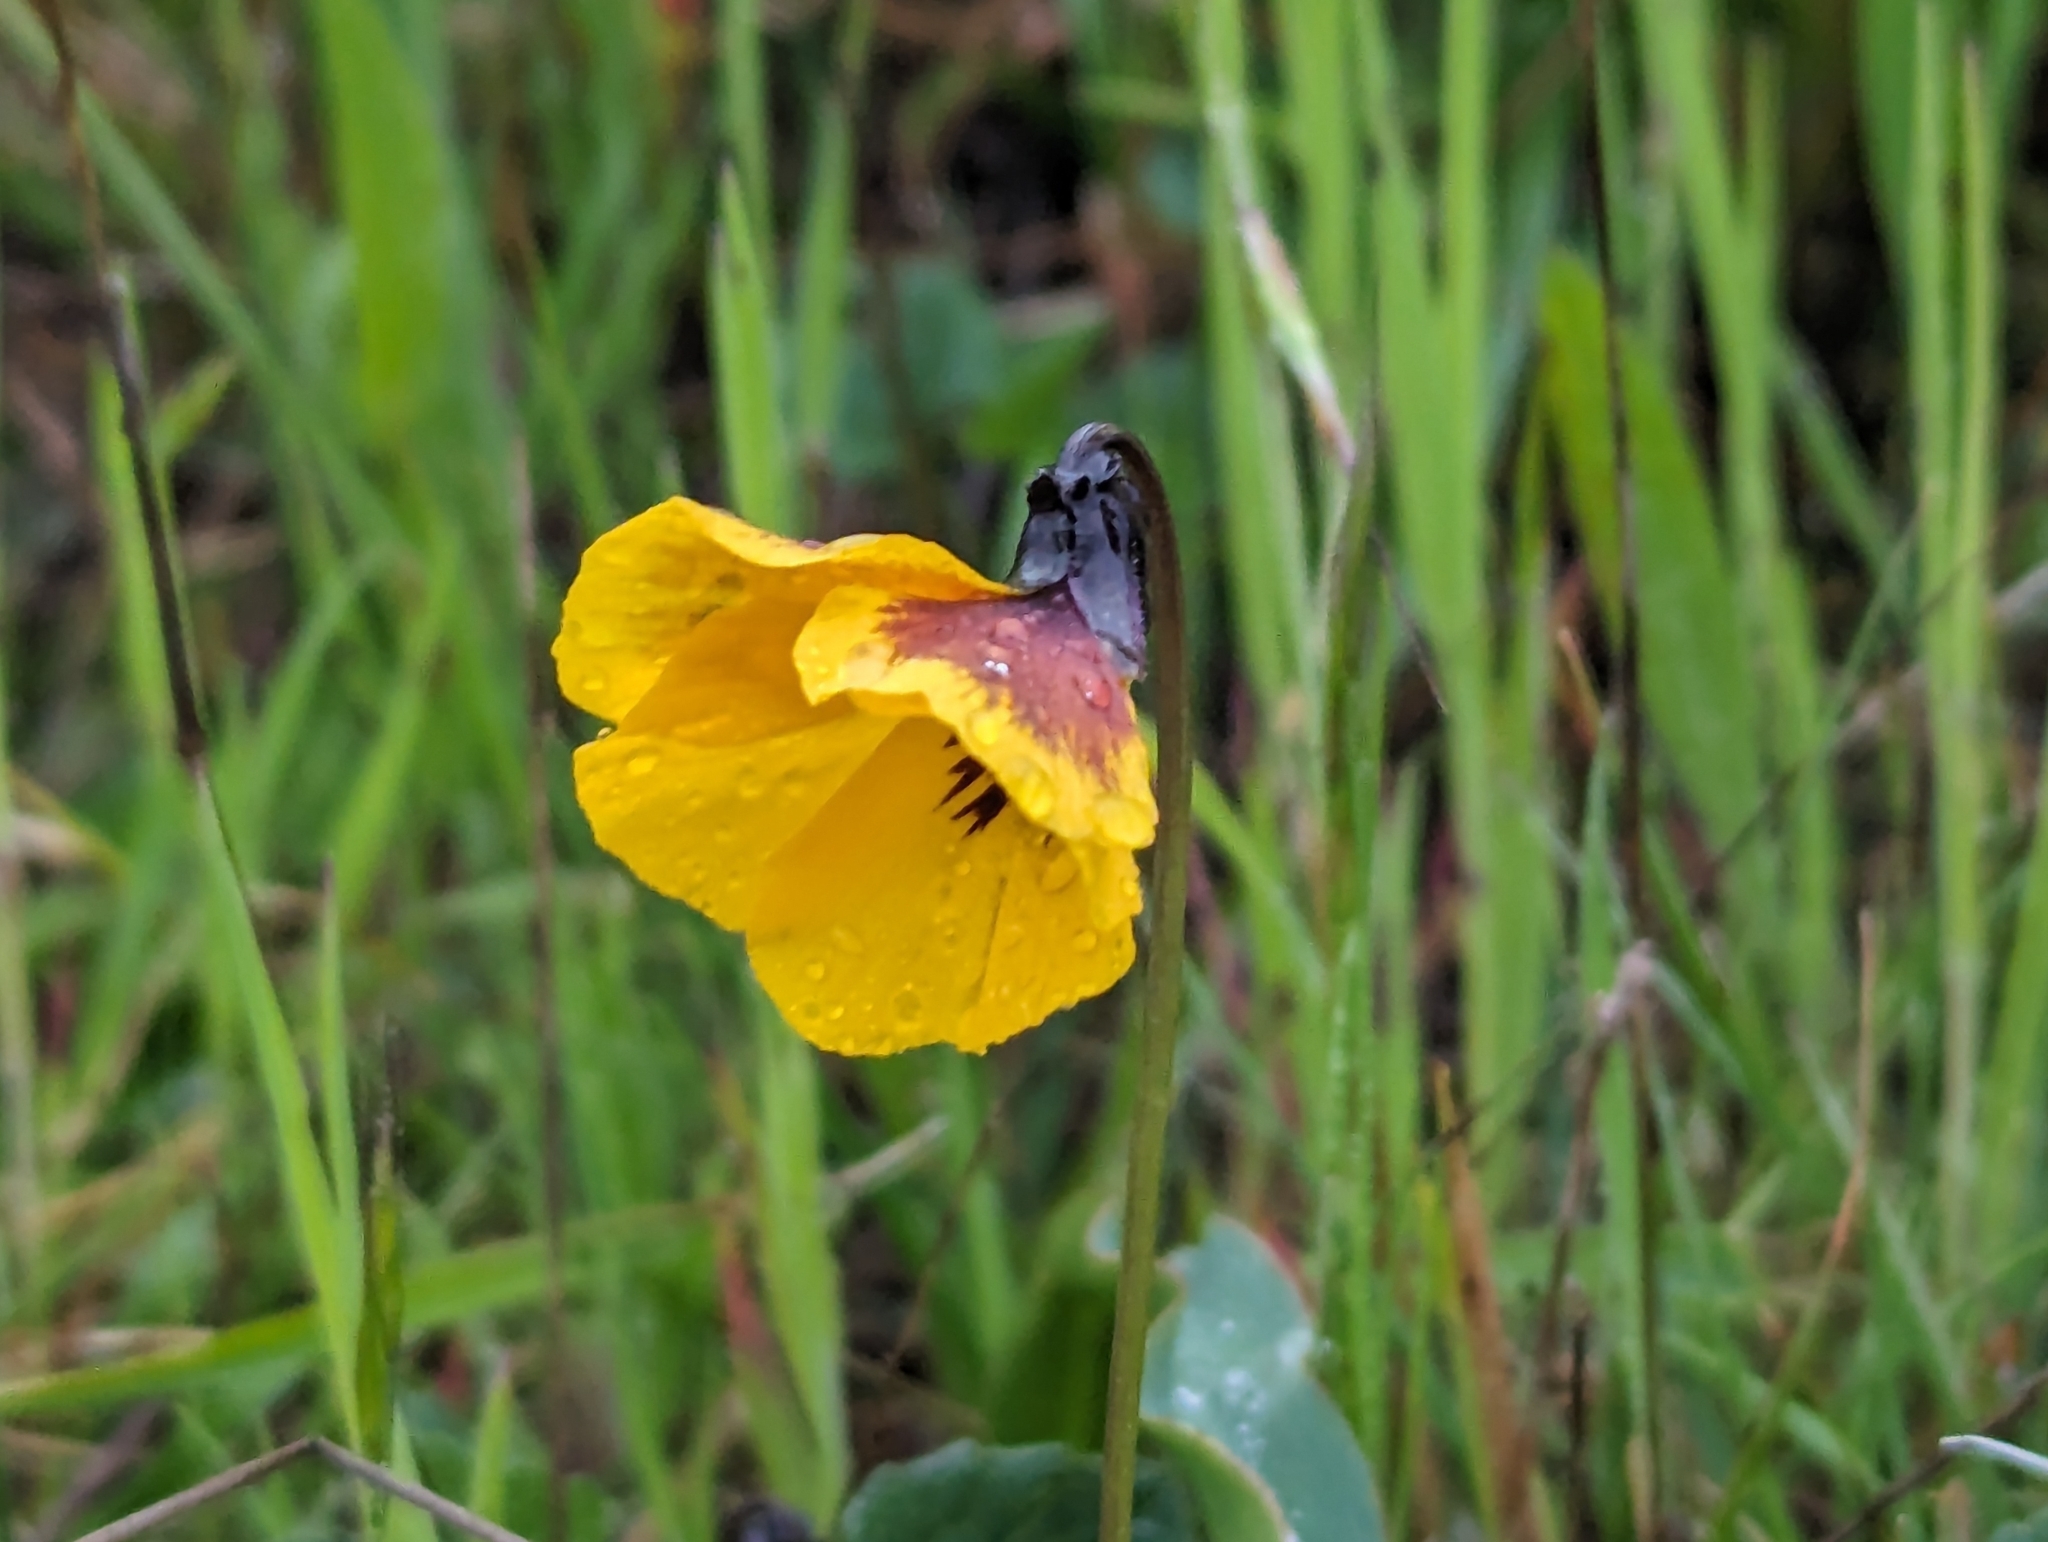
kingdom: Plantae
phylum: Tracheophyta
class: Magnoliopsida
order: Malpighiales
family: Violaceae
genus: Viola
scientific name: Viola pedunculata
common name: California golden violet
